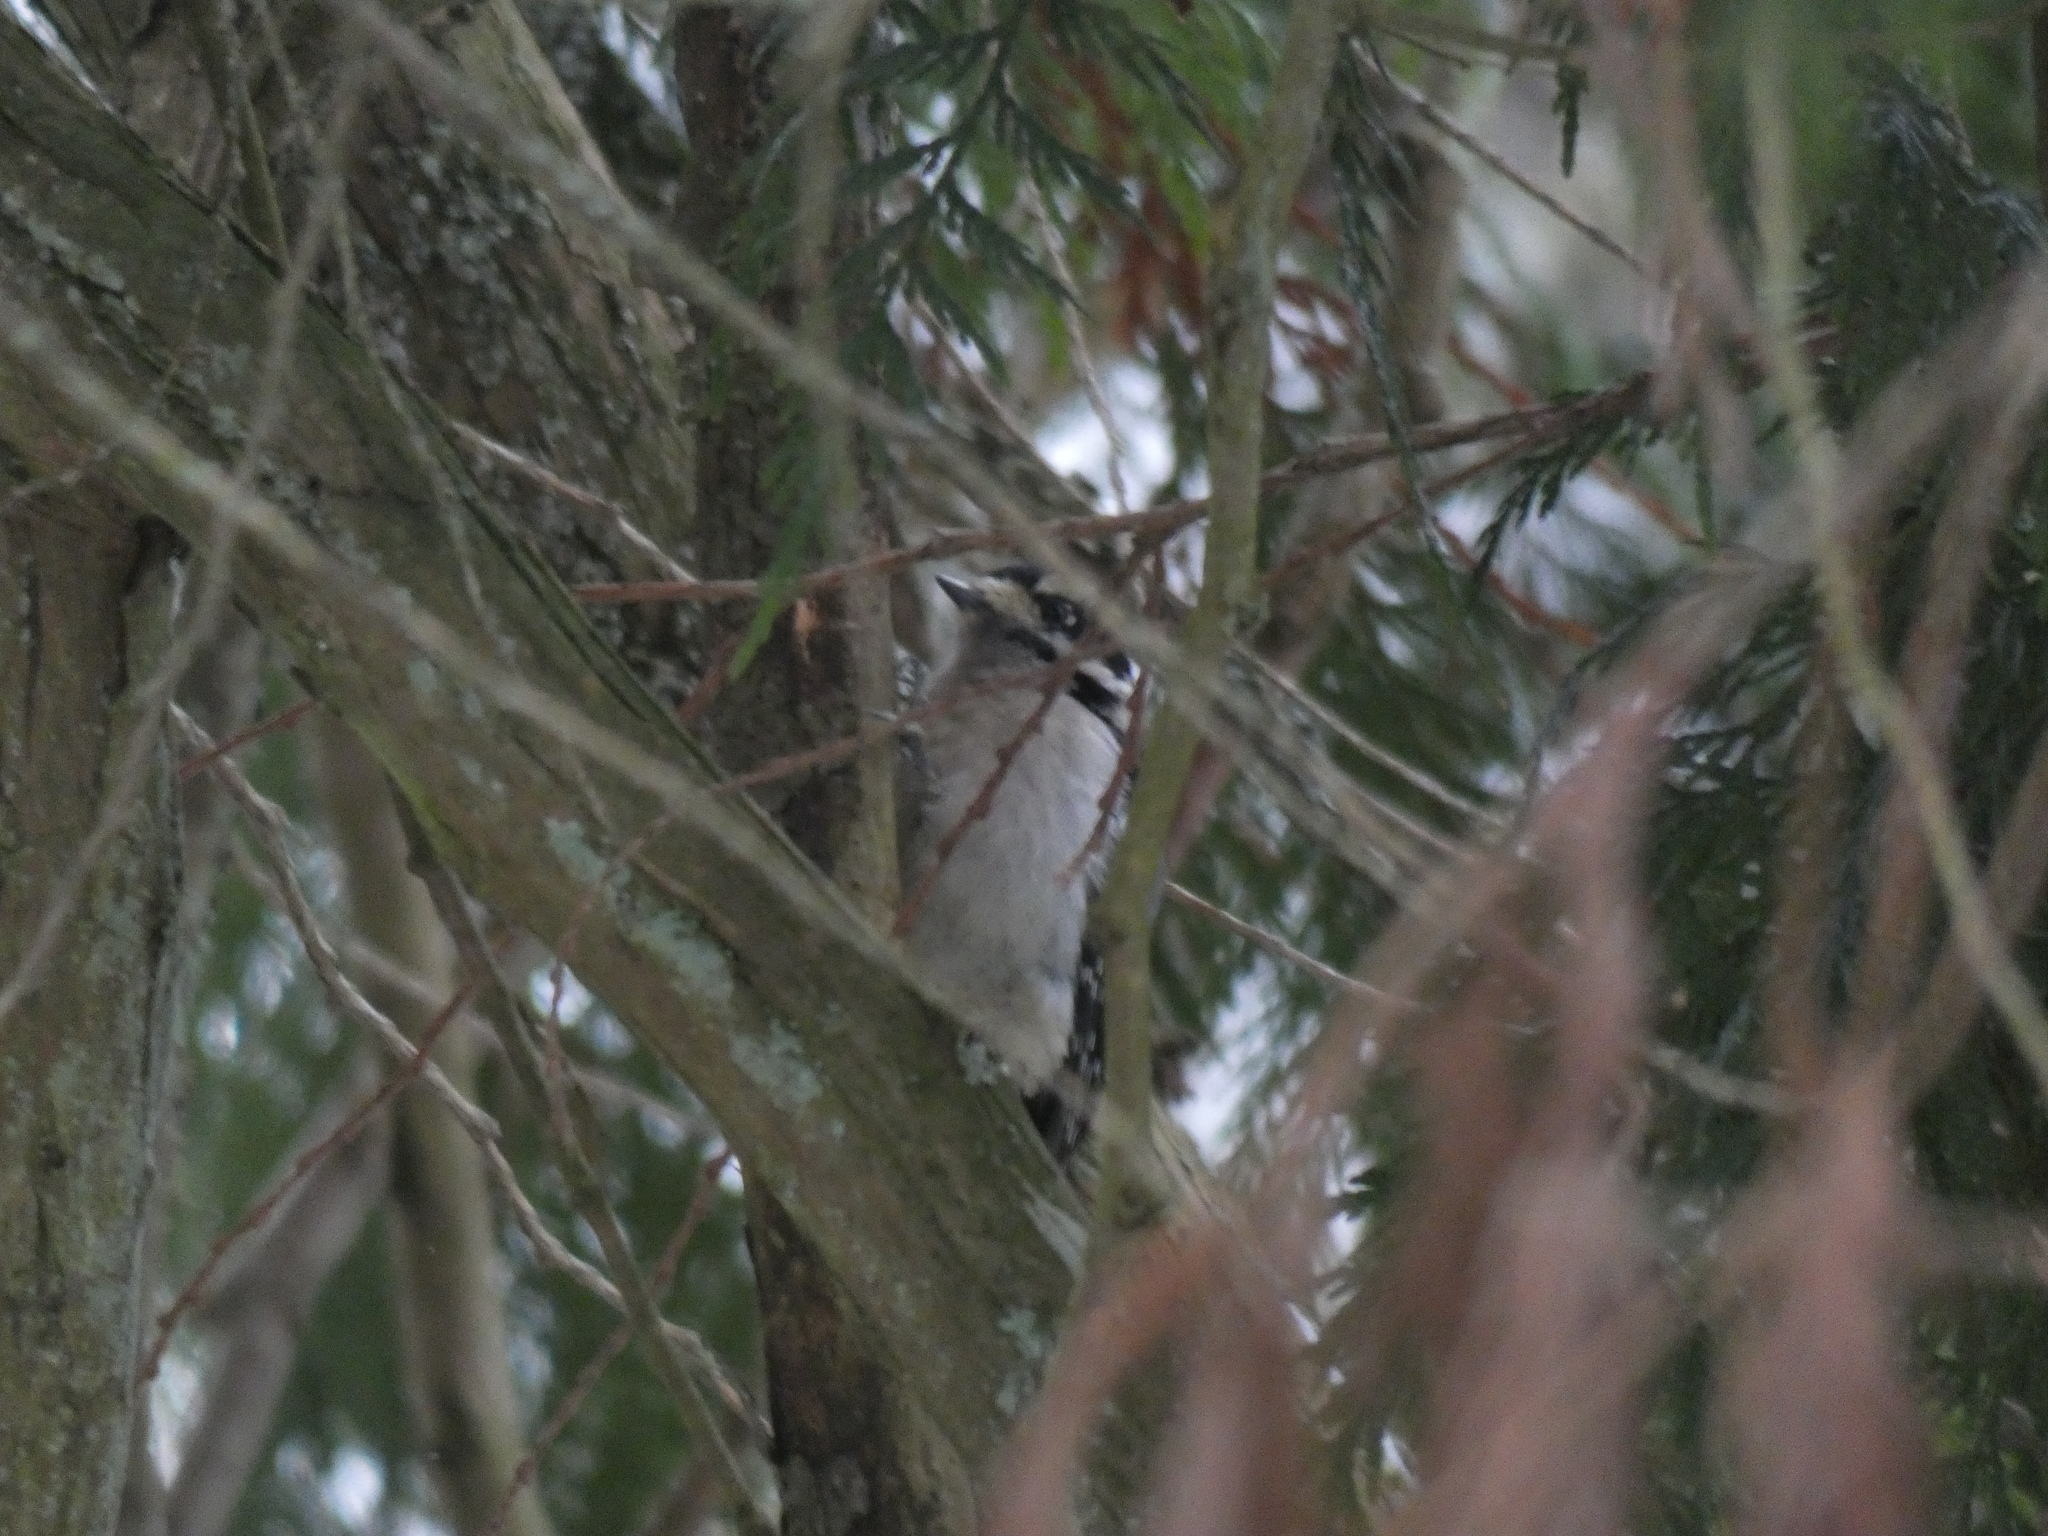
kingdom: Animalia
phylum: Chordata
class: Aves
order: Piciformes
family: Picidae
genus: Dryobates
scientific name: Dryobates pubescens
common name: Downy woodpecker
